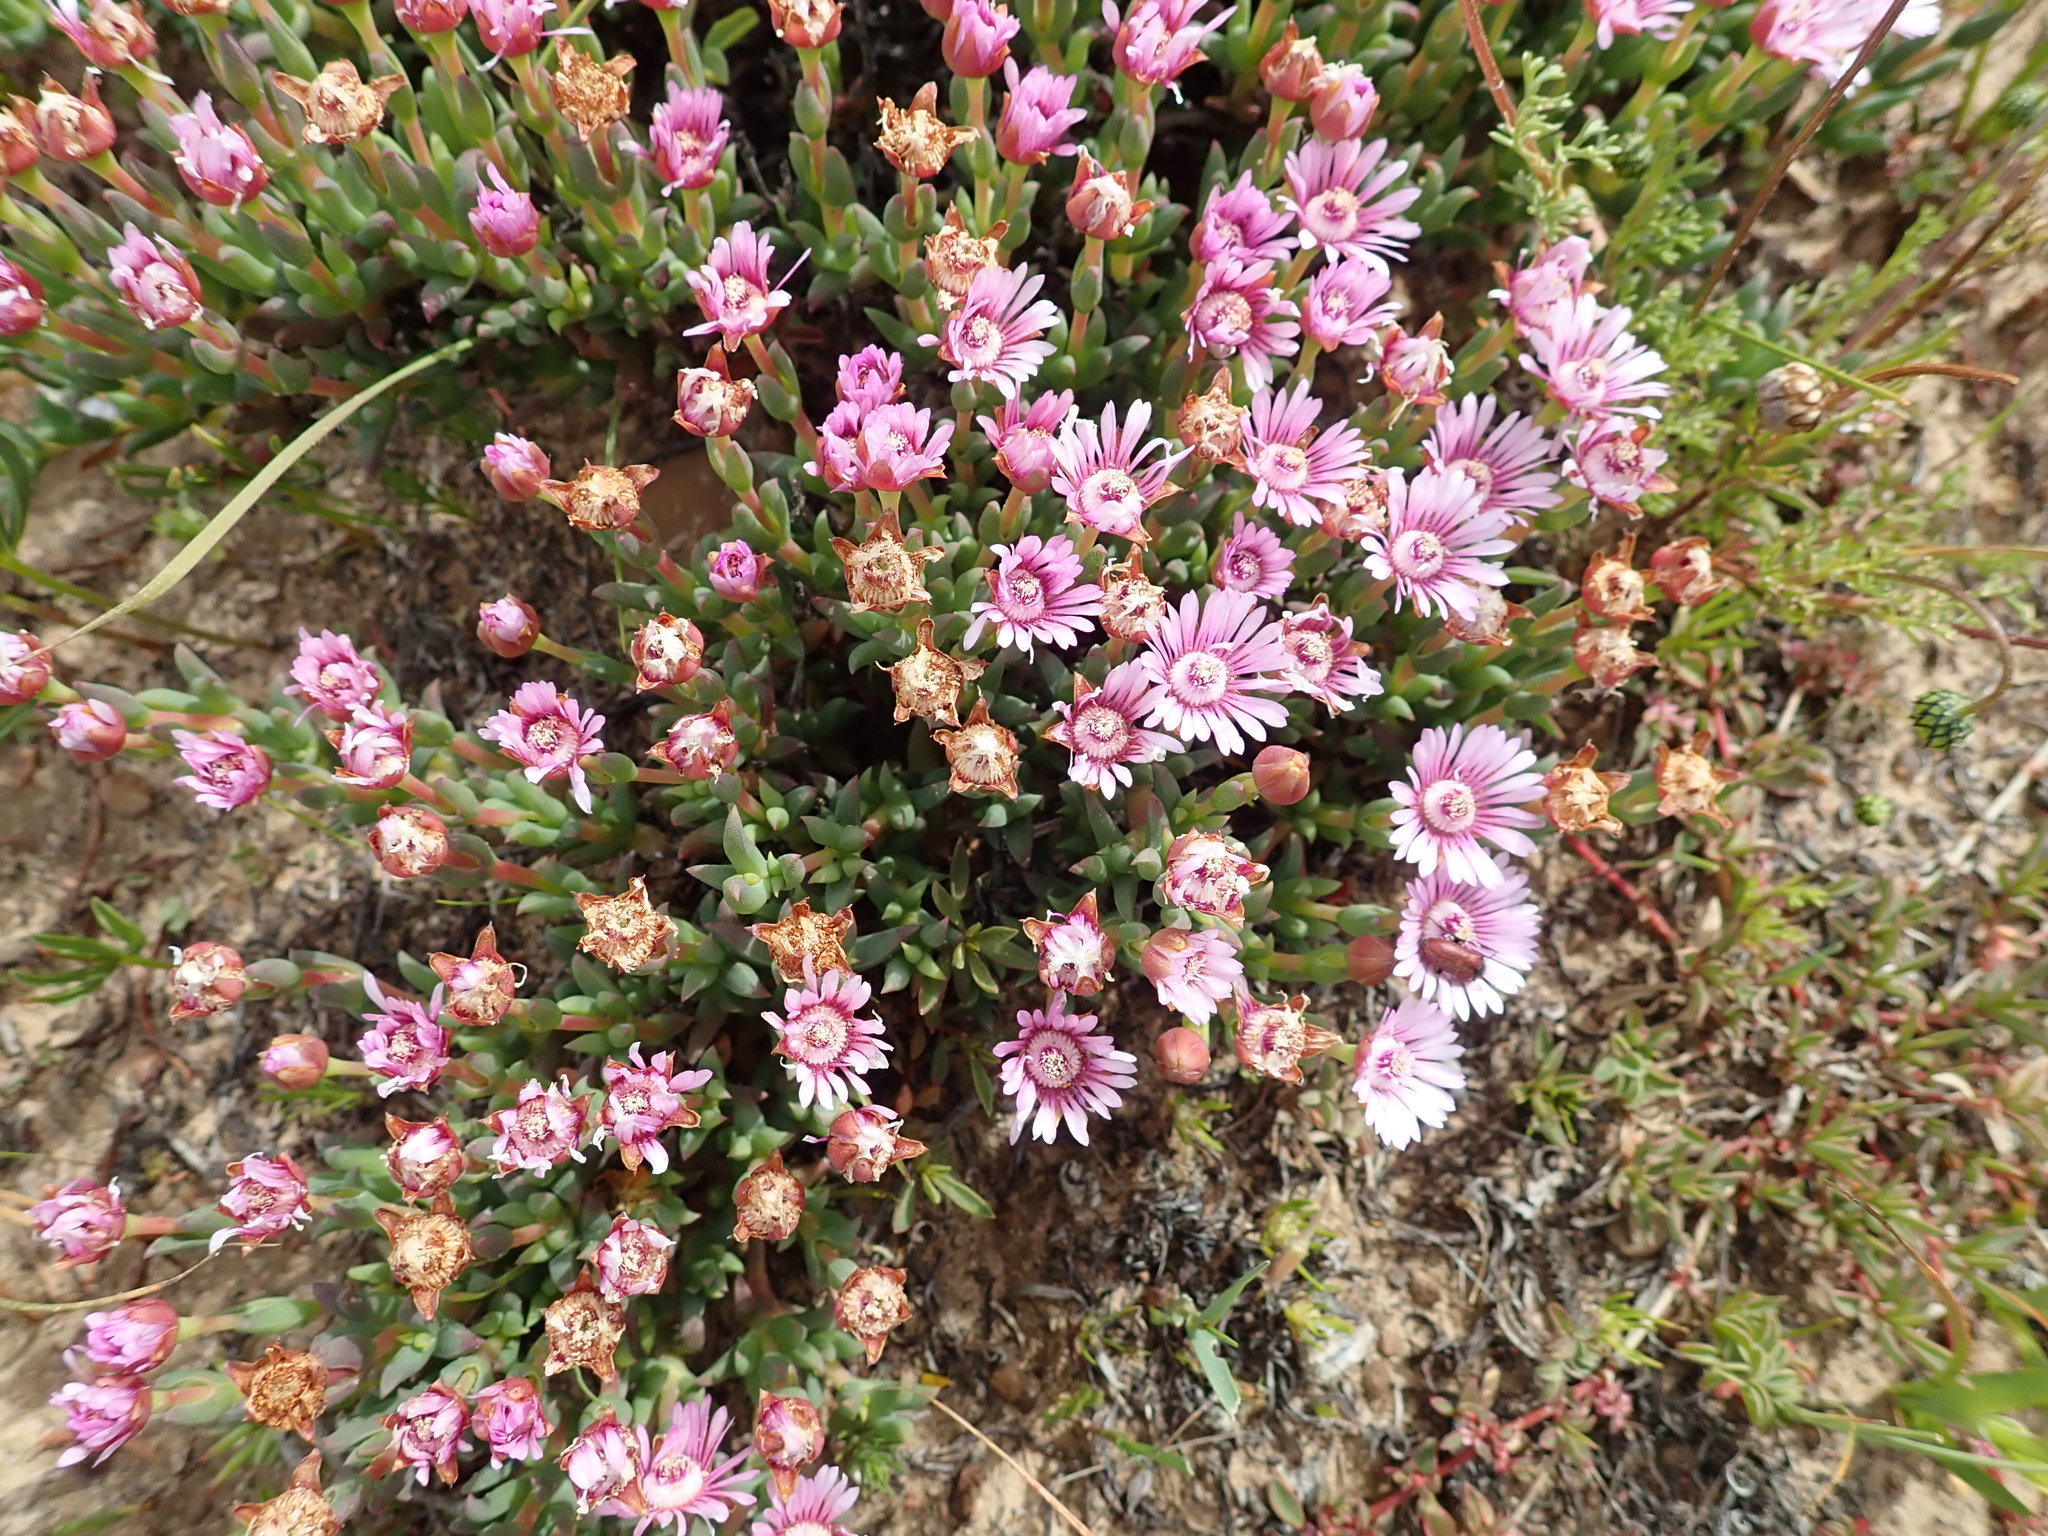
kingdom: Plantae
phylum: Tracheophyta
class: Magnoliopsida
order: Caryophyllales
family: Aizoaceae
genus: Phiambolia
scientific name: Phiambolia gydouwensis
